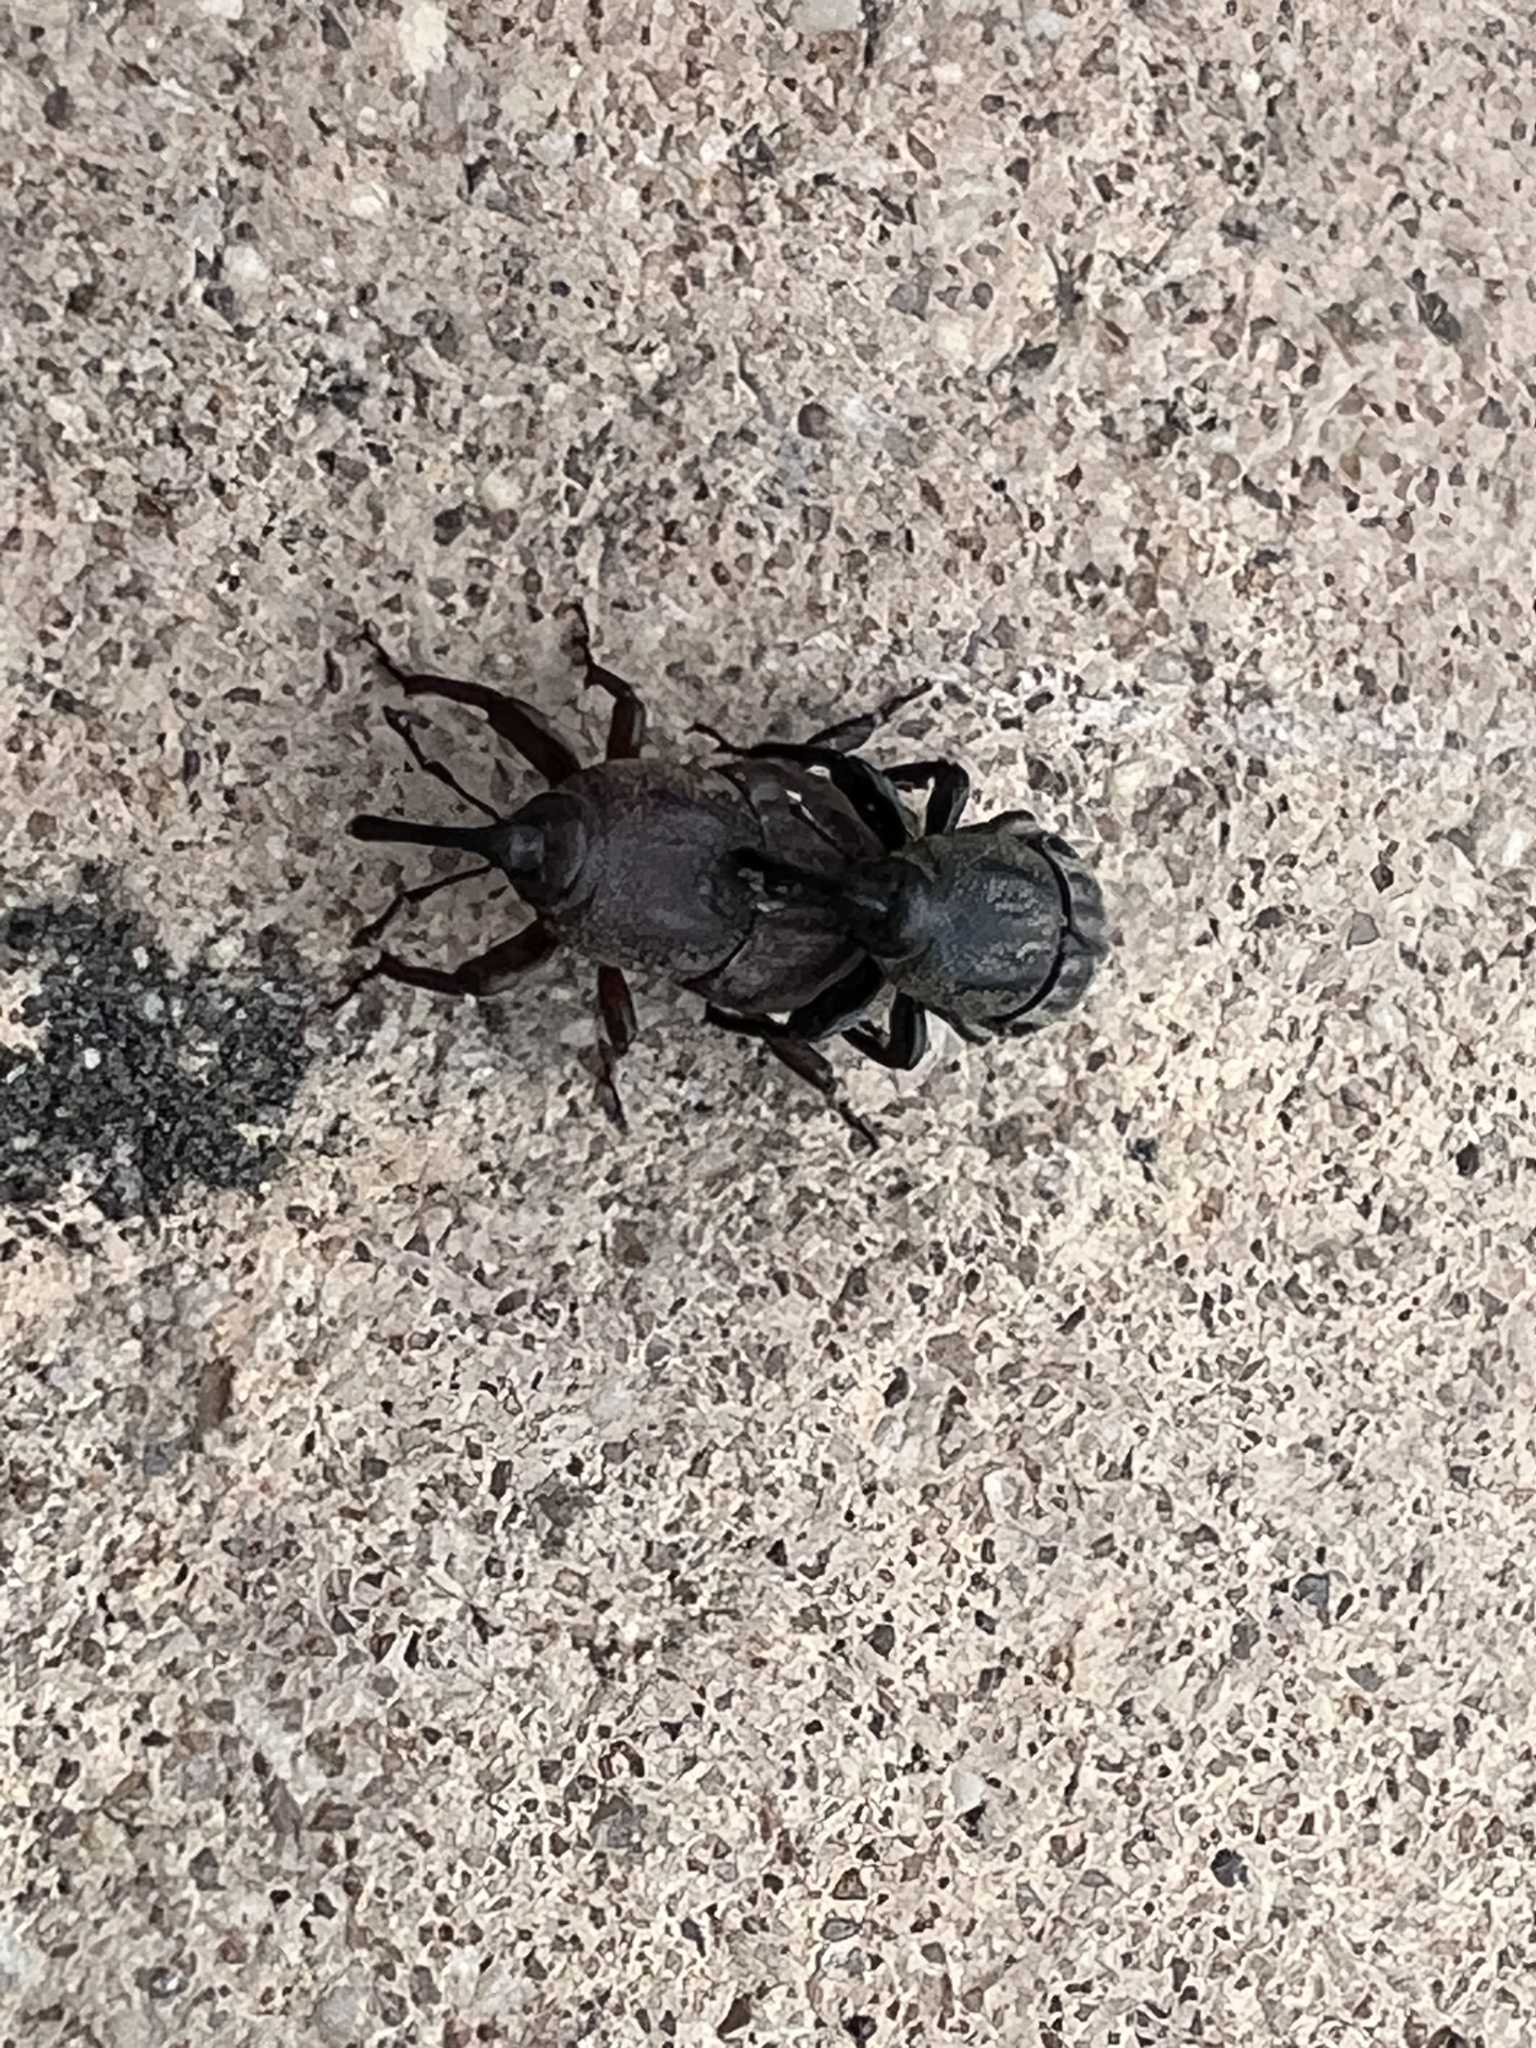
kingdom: Animalia
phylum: Arthropoda
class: Insecta
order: Coleoptera
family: Dryophthoridae
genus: Sphenophorus
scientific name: Sphenophorus venatus
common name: Hunting billbug
